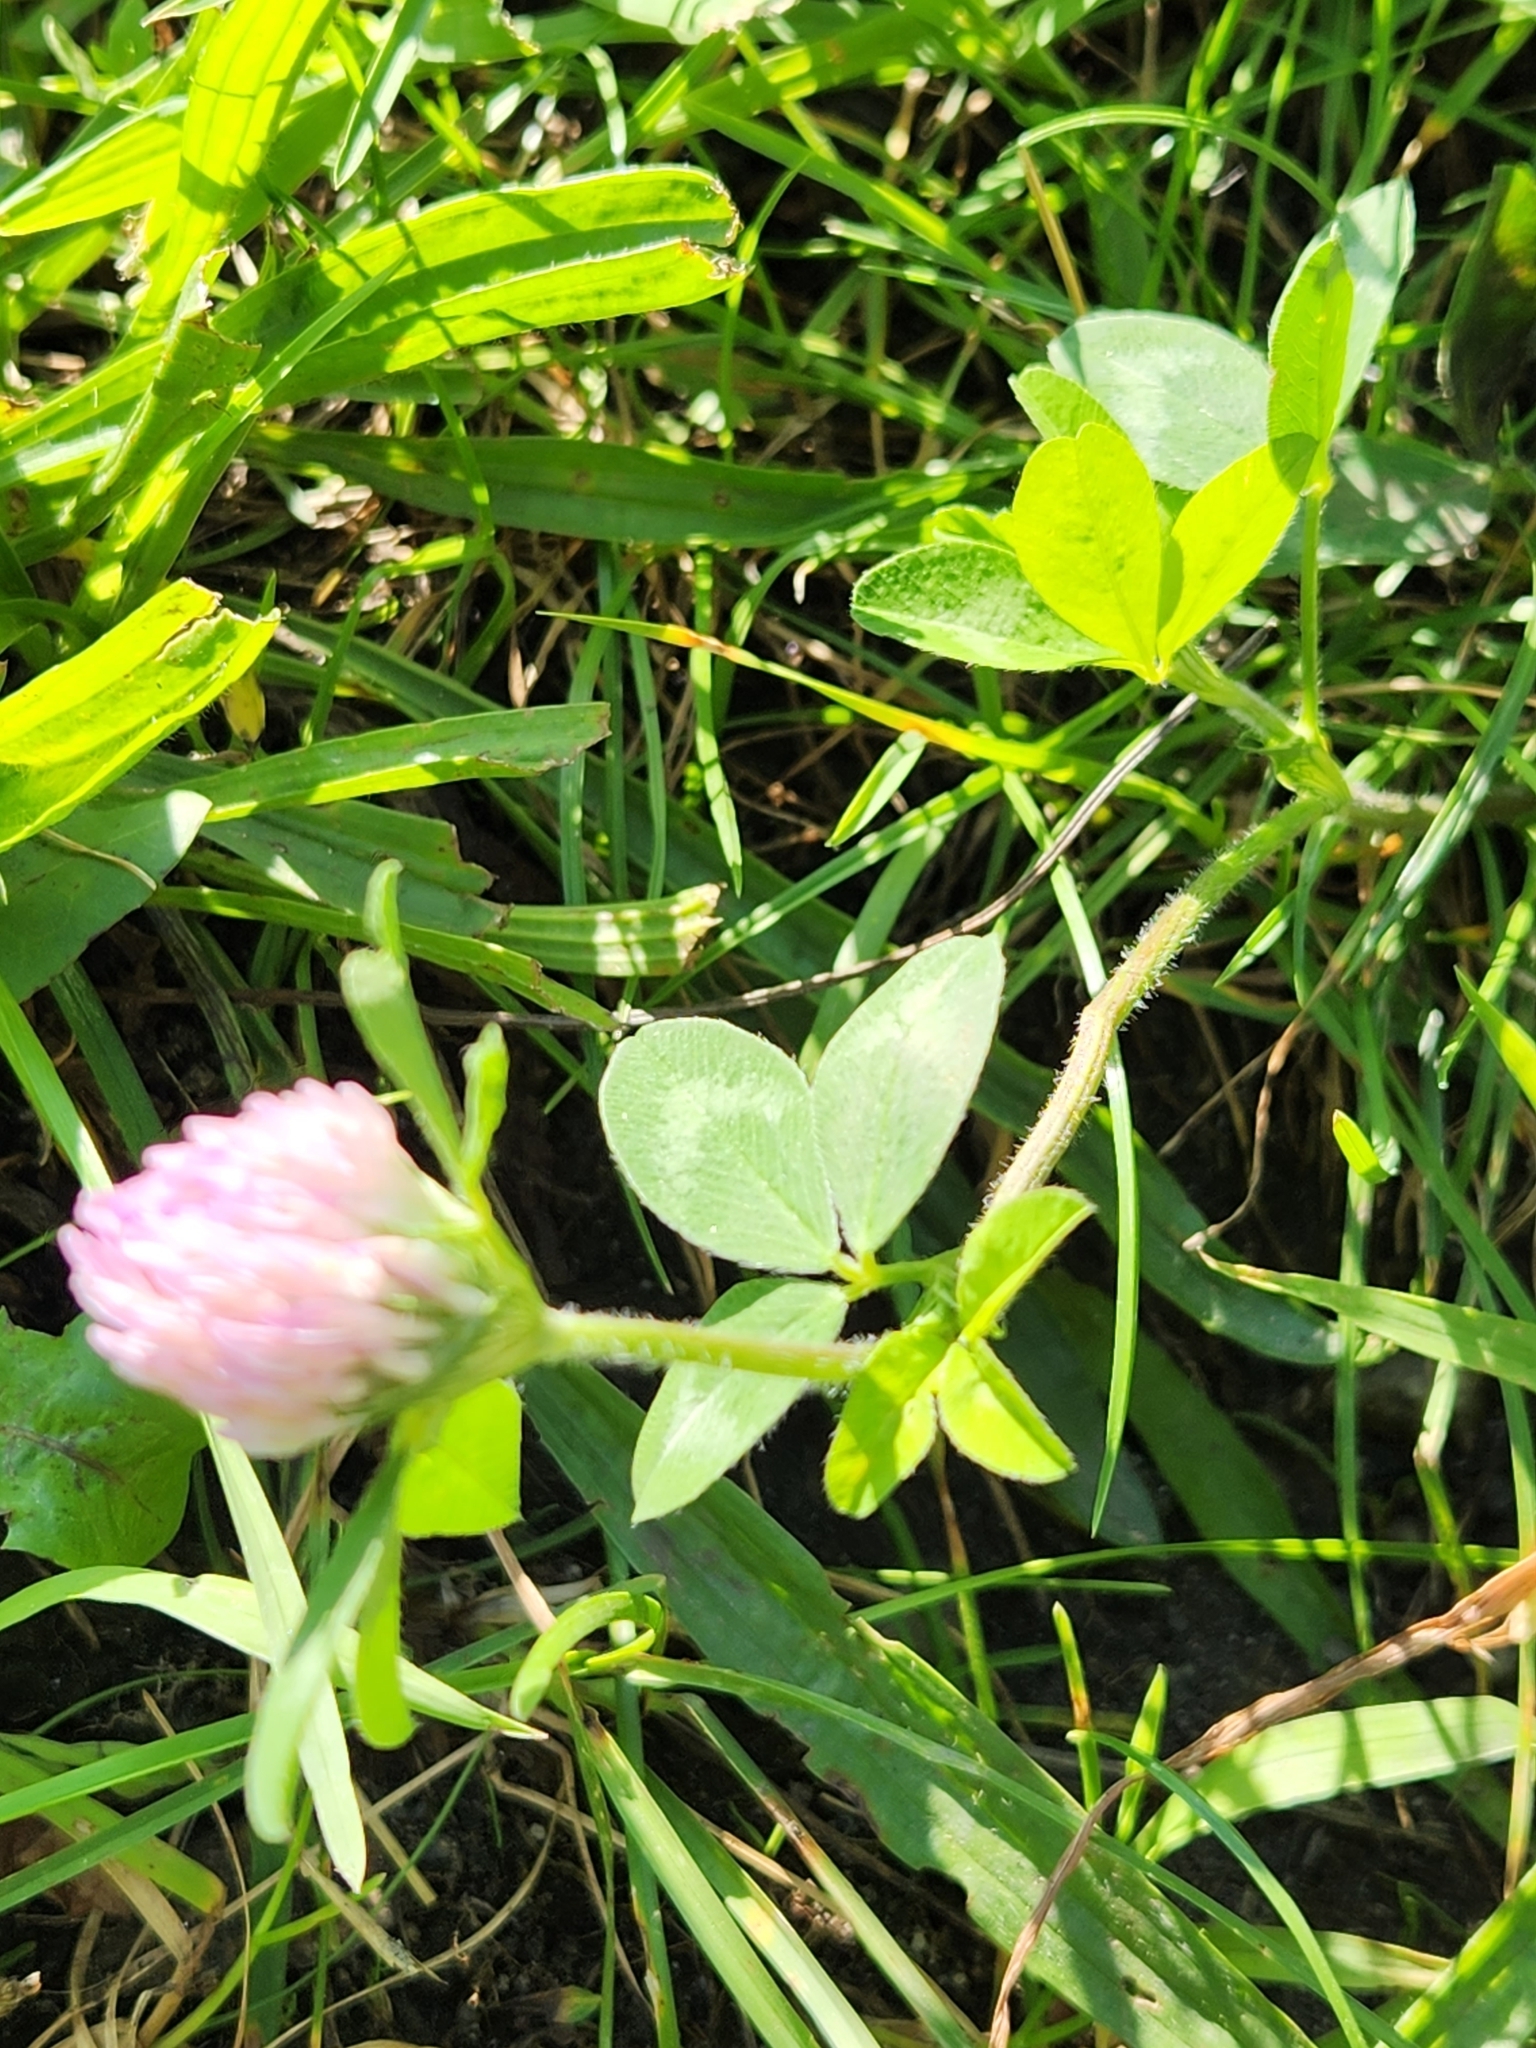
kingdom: Plantae
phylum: Tracheophyta
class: Magnoliopsida
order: Fabales
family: Fabaceae
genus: Trifolium
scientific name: Trifolium pratense
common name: Red clover
